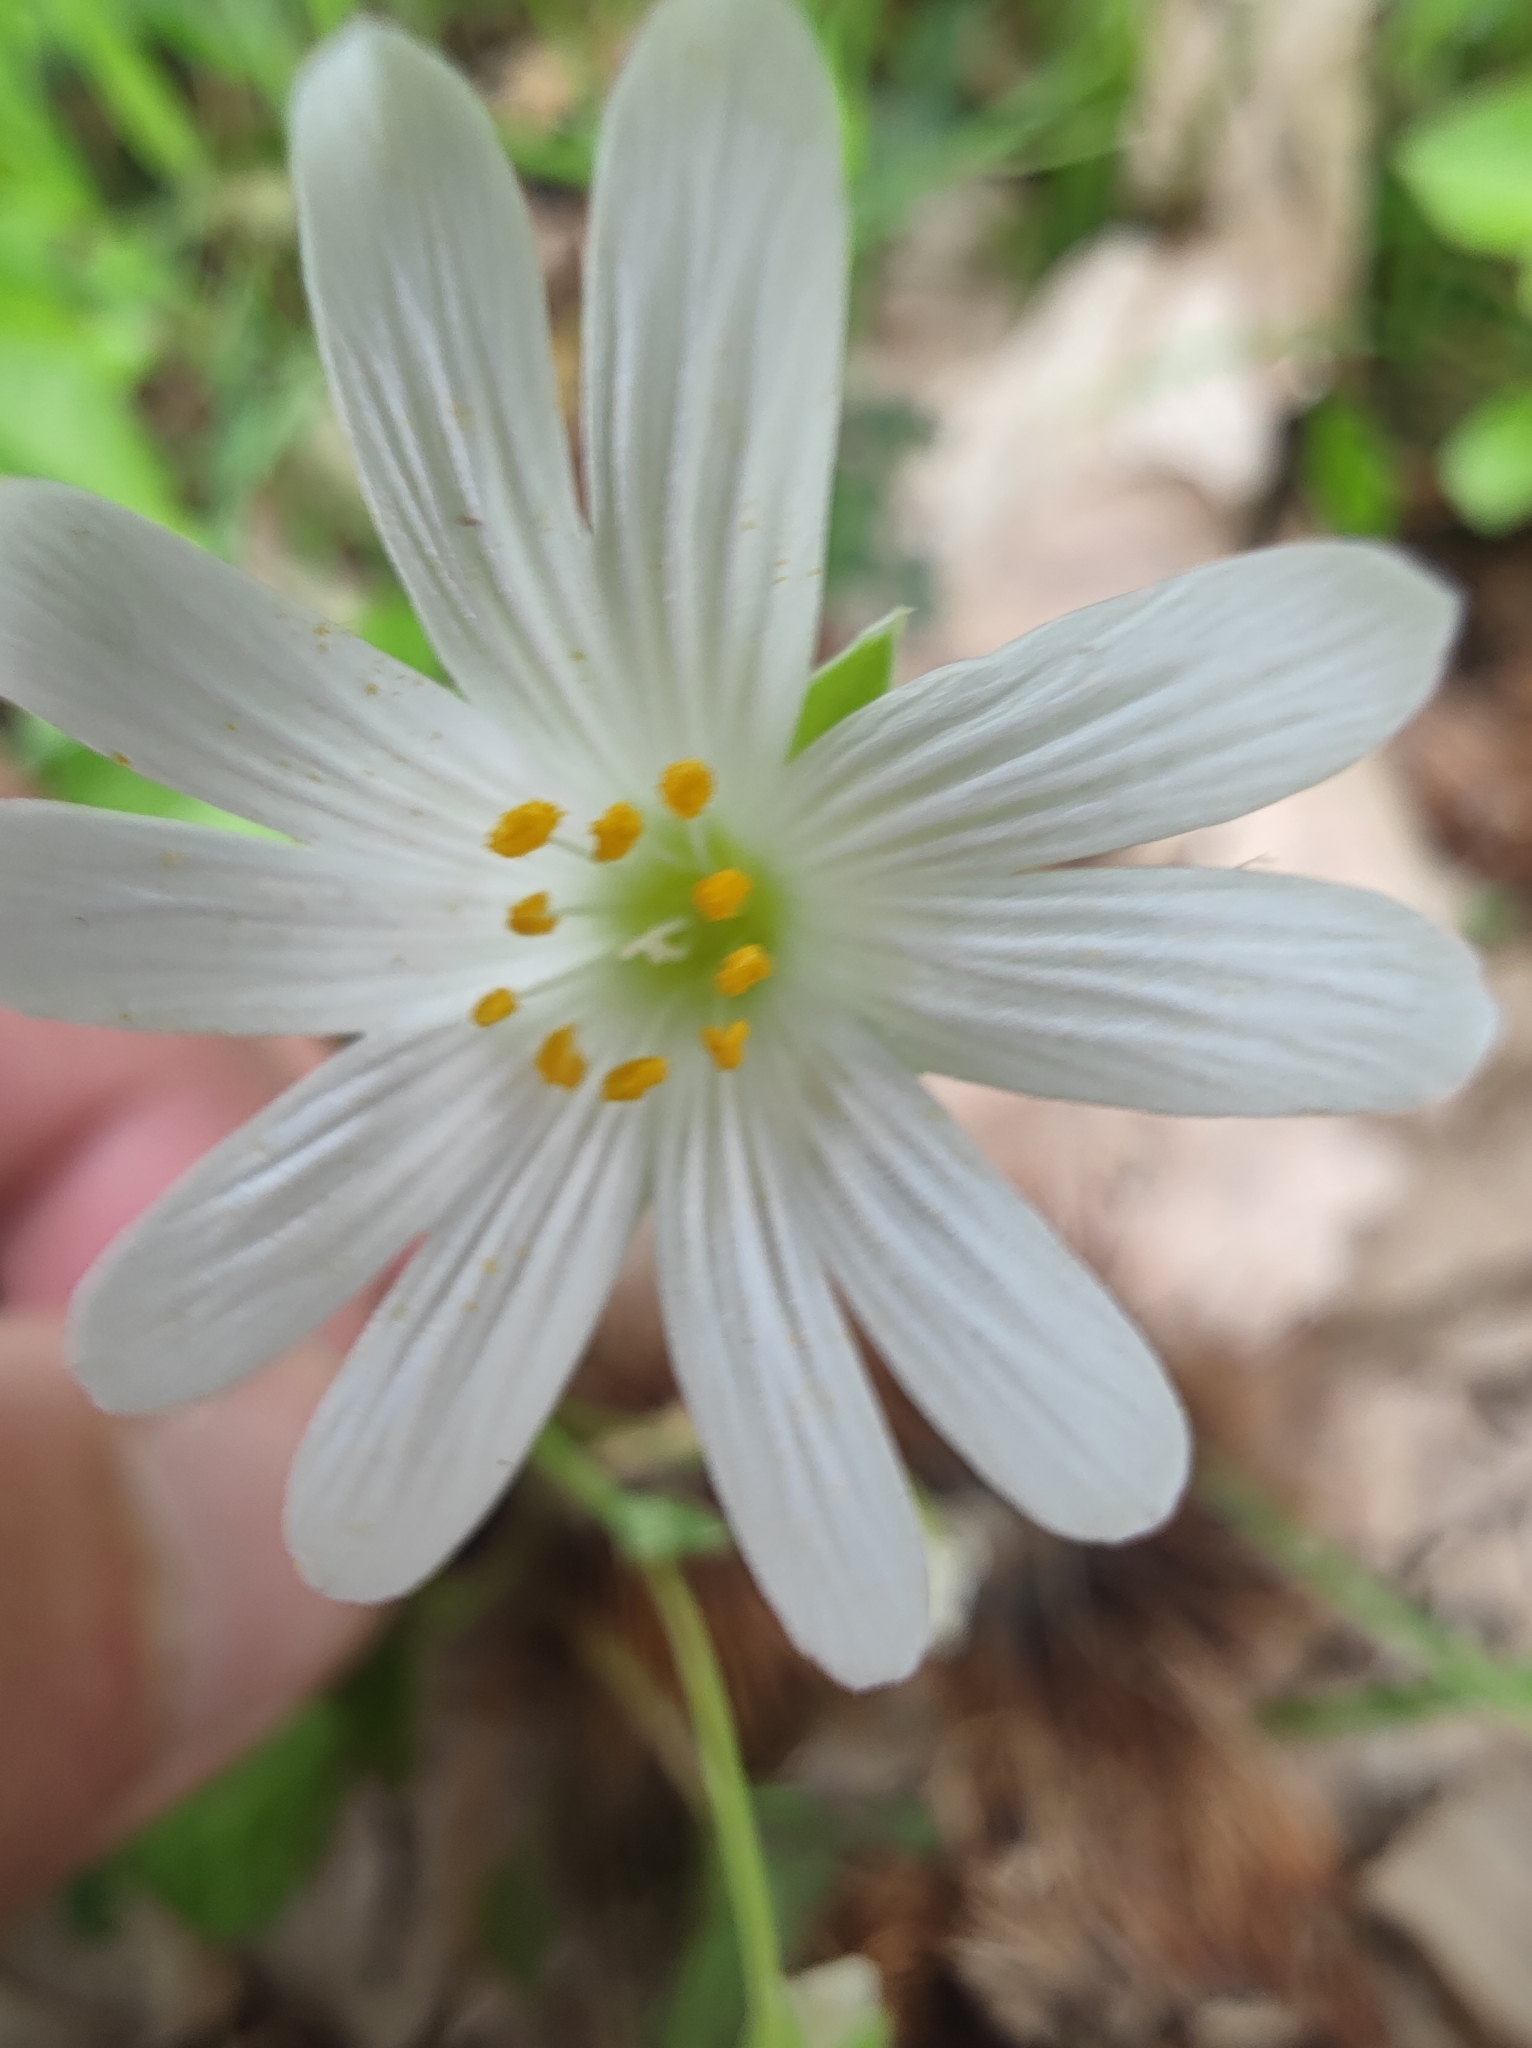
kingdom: Plantae
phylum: Tracheophyta
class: Magnoliopsida
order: Caryophyllales
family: Caryophyllaceae
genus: Rabelera
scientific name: Rabelera holostea
